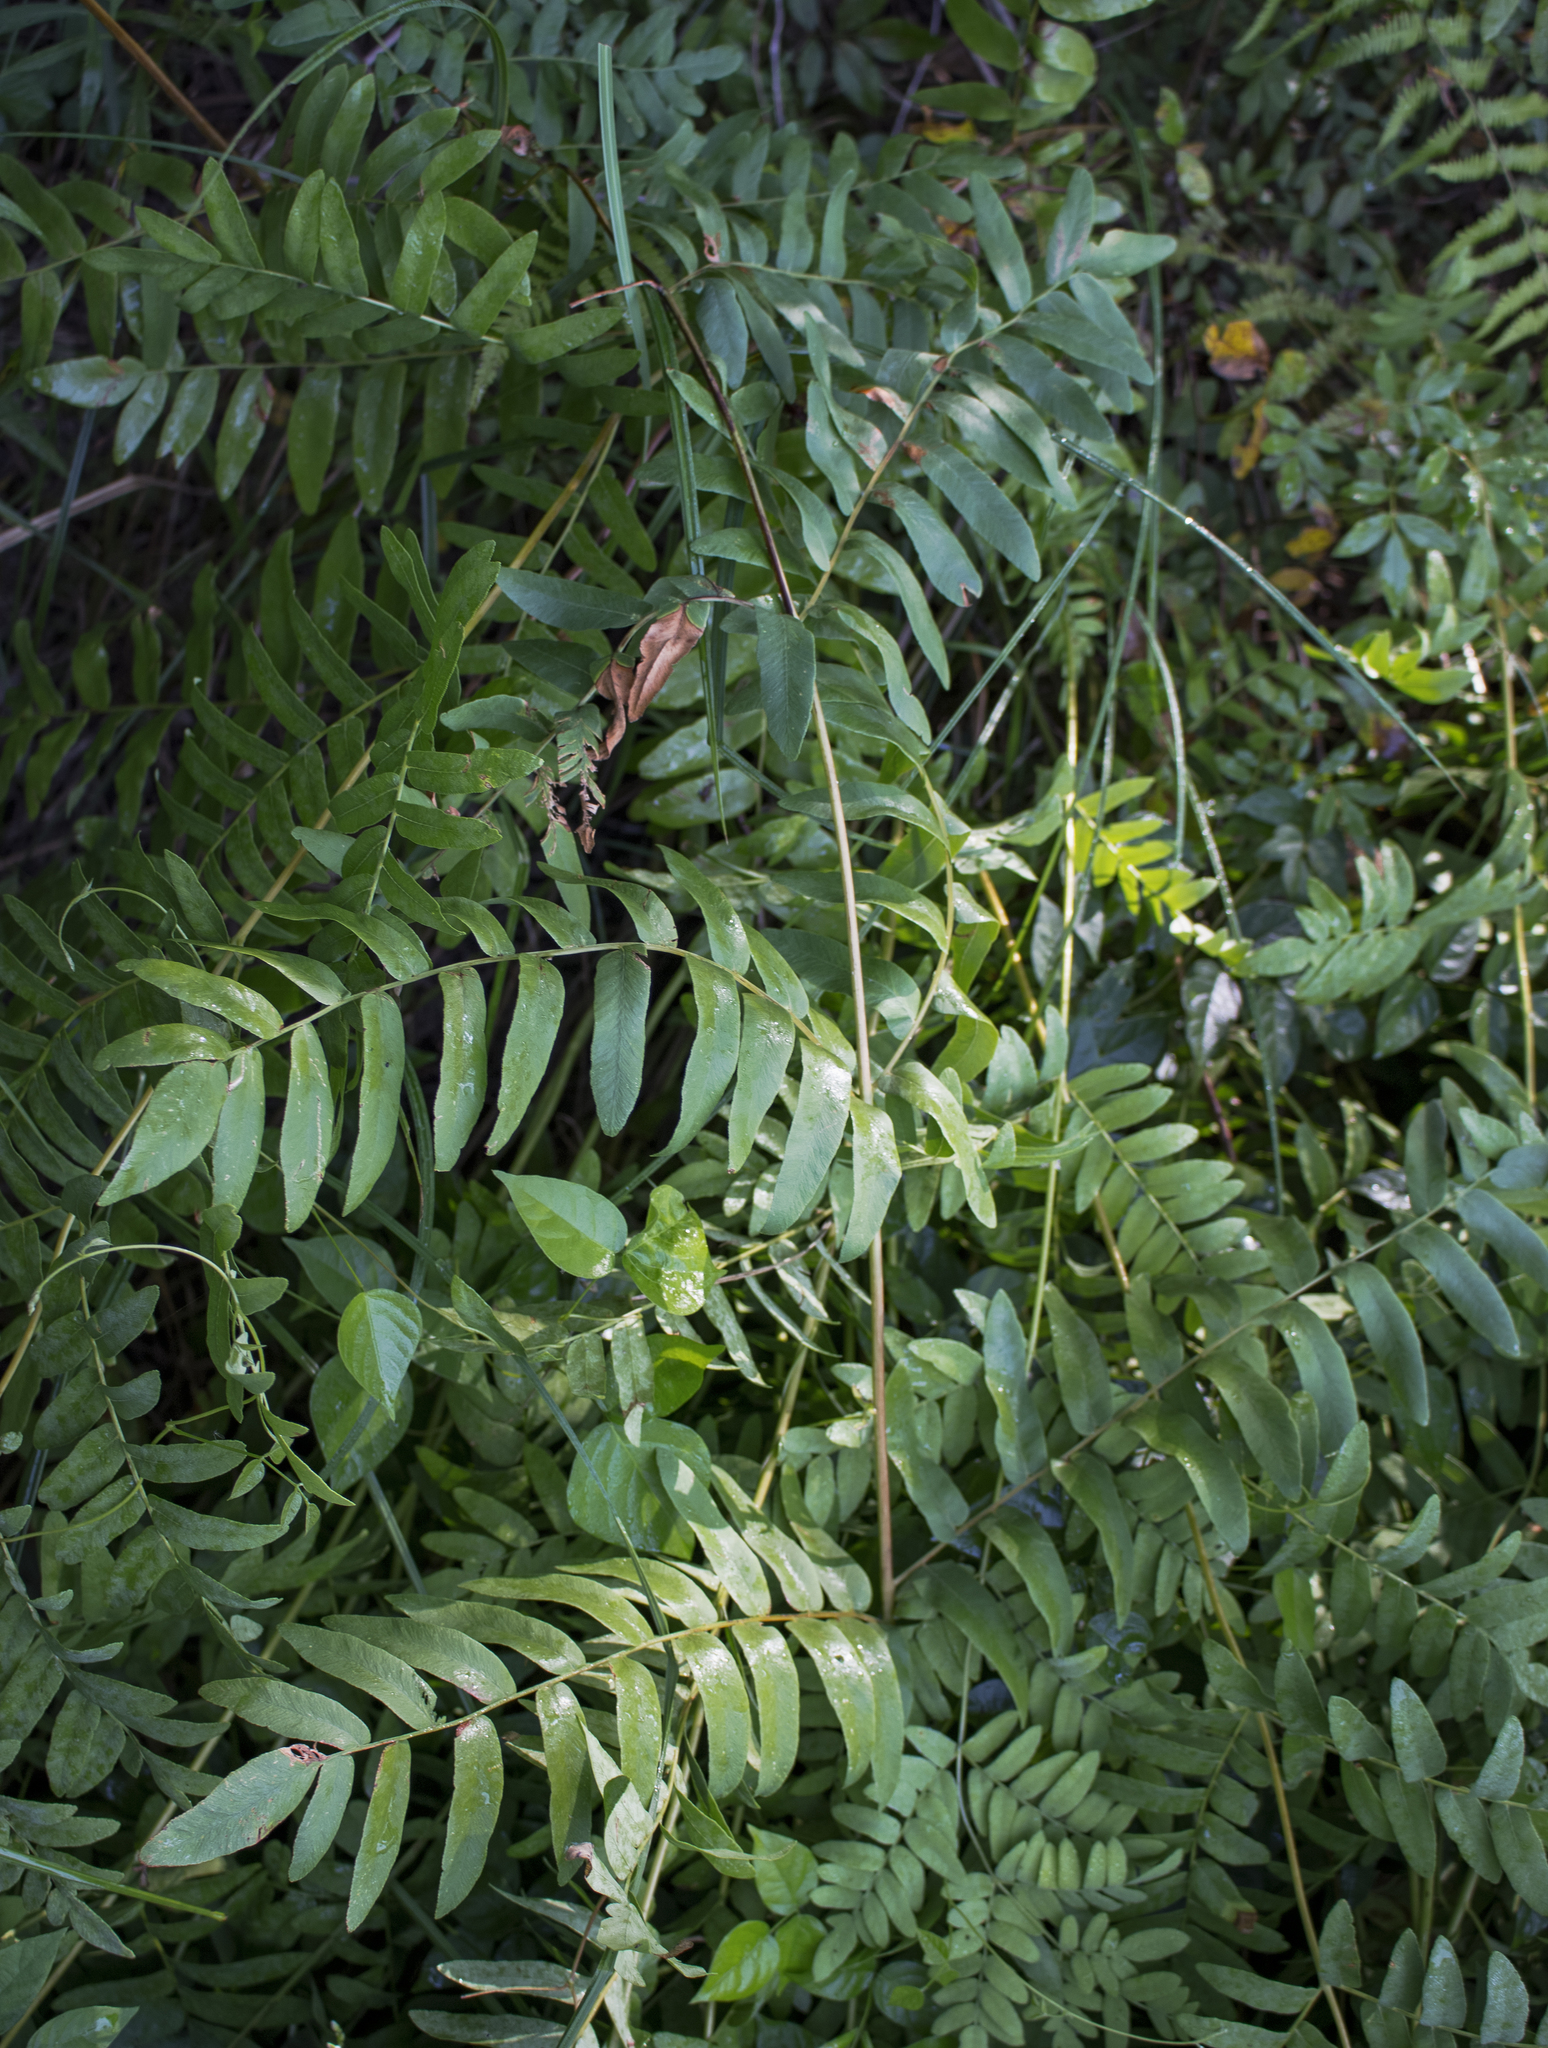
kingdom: Plantae
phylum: Tracheophyta
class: Polypodiopsida
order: Osmundales
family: Osmundaceae
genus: Osmunda
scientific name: Osmunda spectabilis
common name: American royal fern
